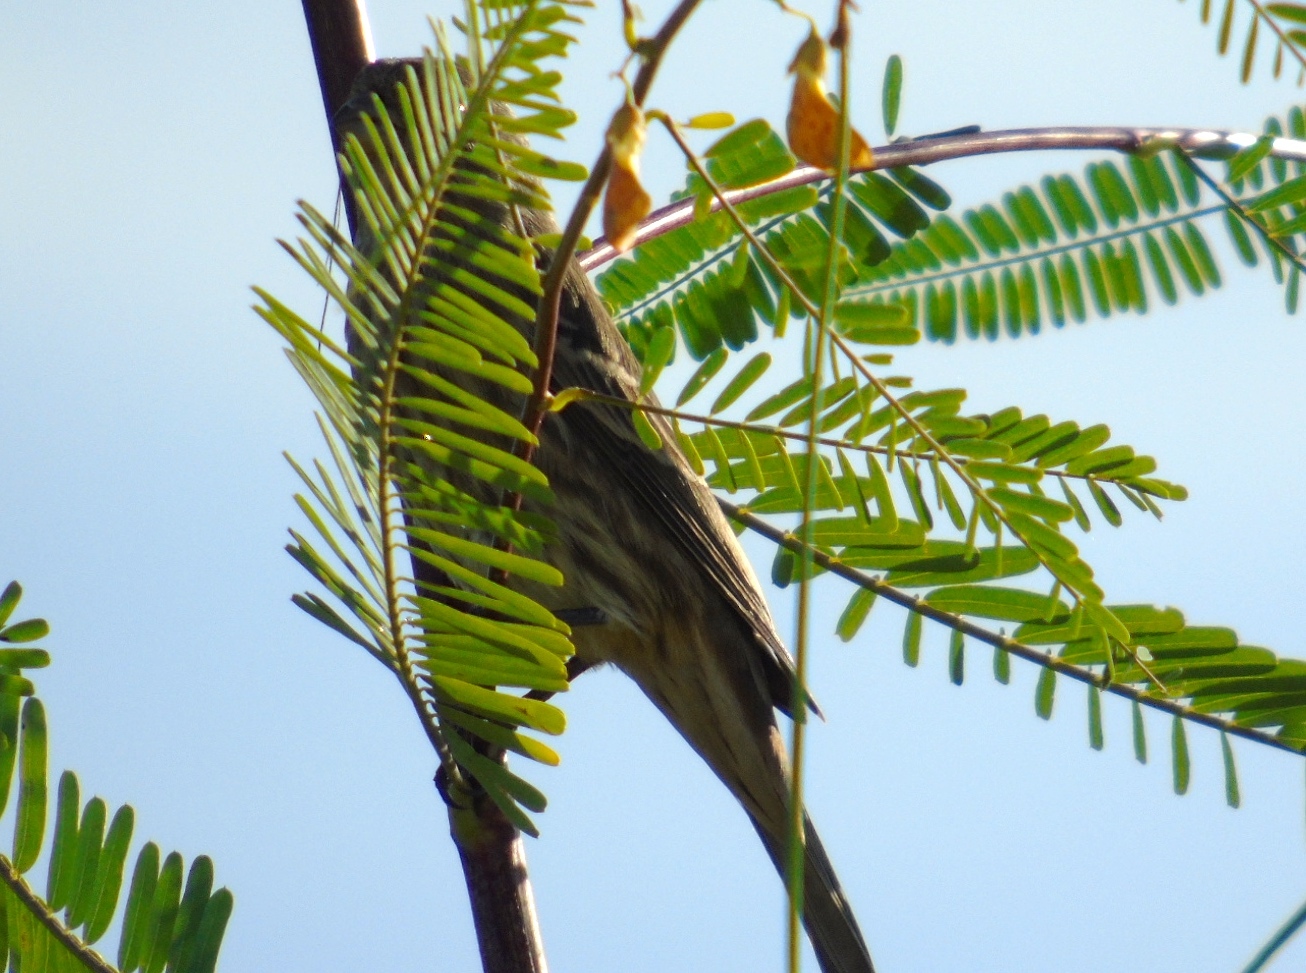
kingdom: Animalia
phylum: Chordata
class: Aves
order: Passeriformes
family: Fringillidae
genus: Haemorhous
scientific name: Haemorhous mexicanus
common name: House finch
